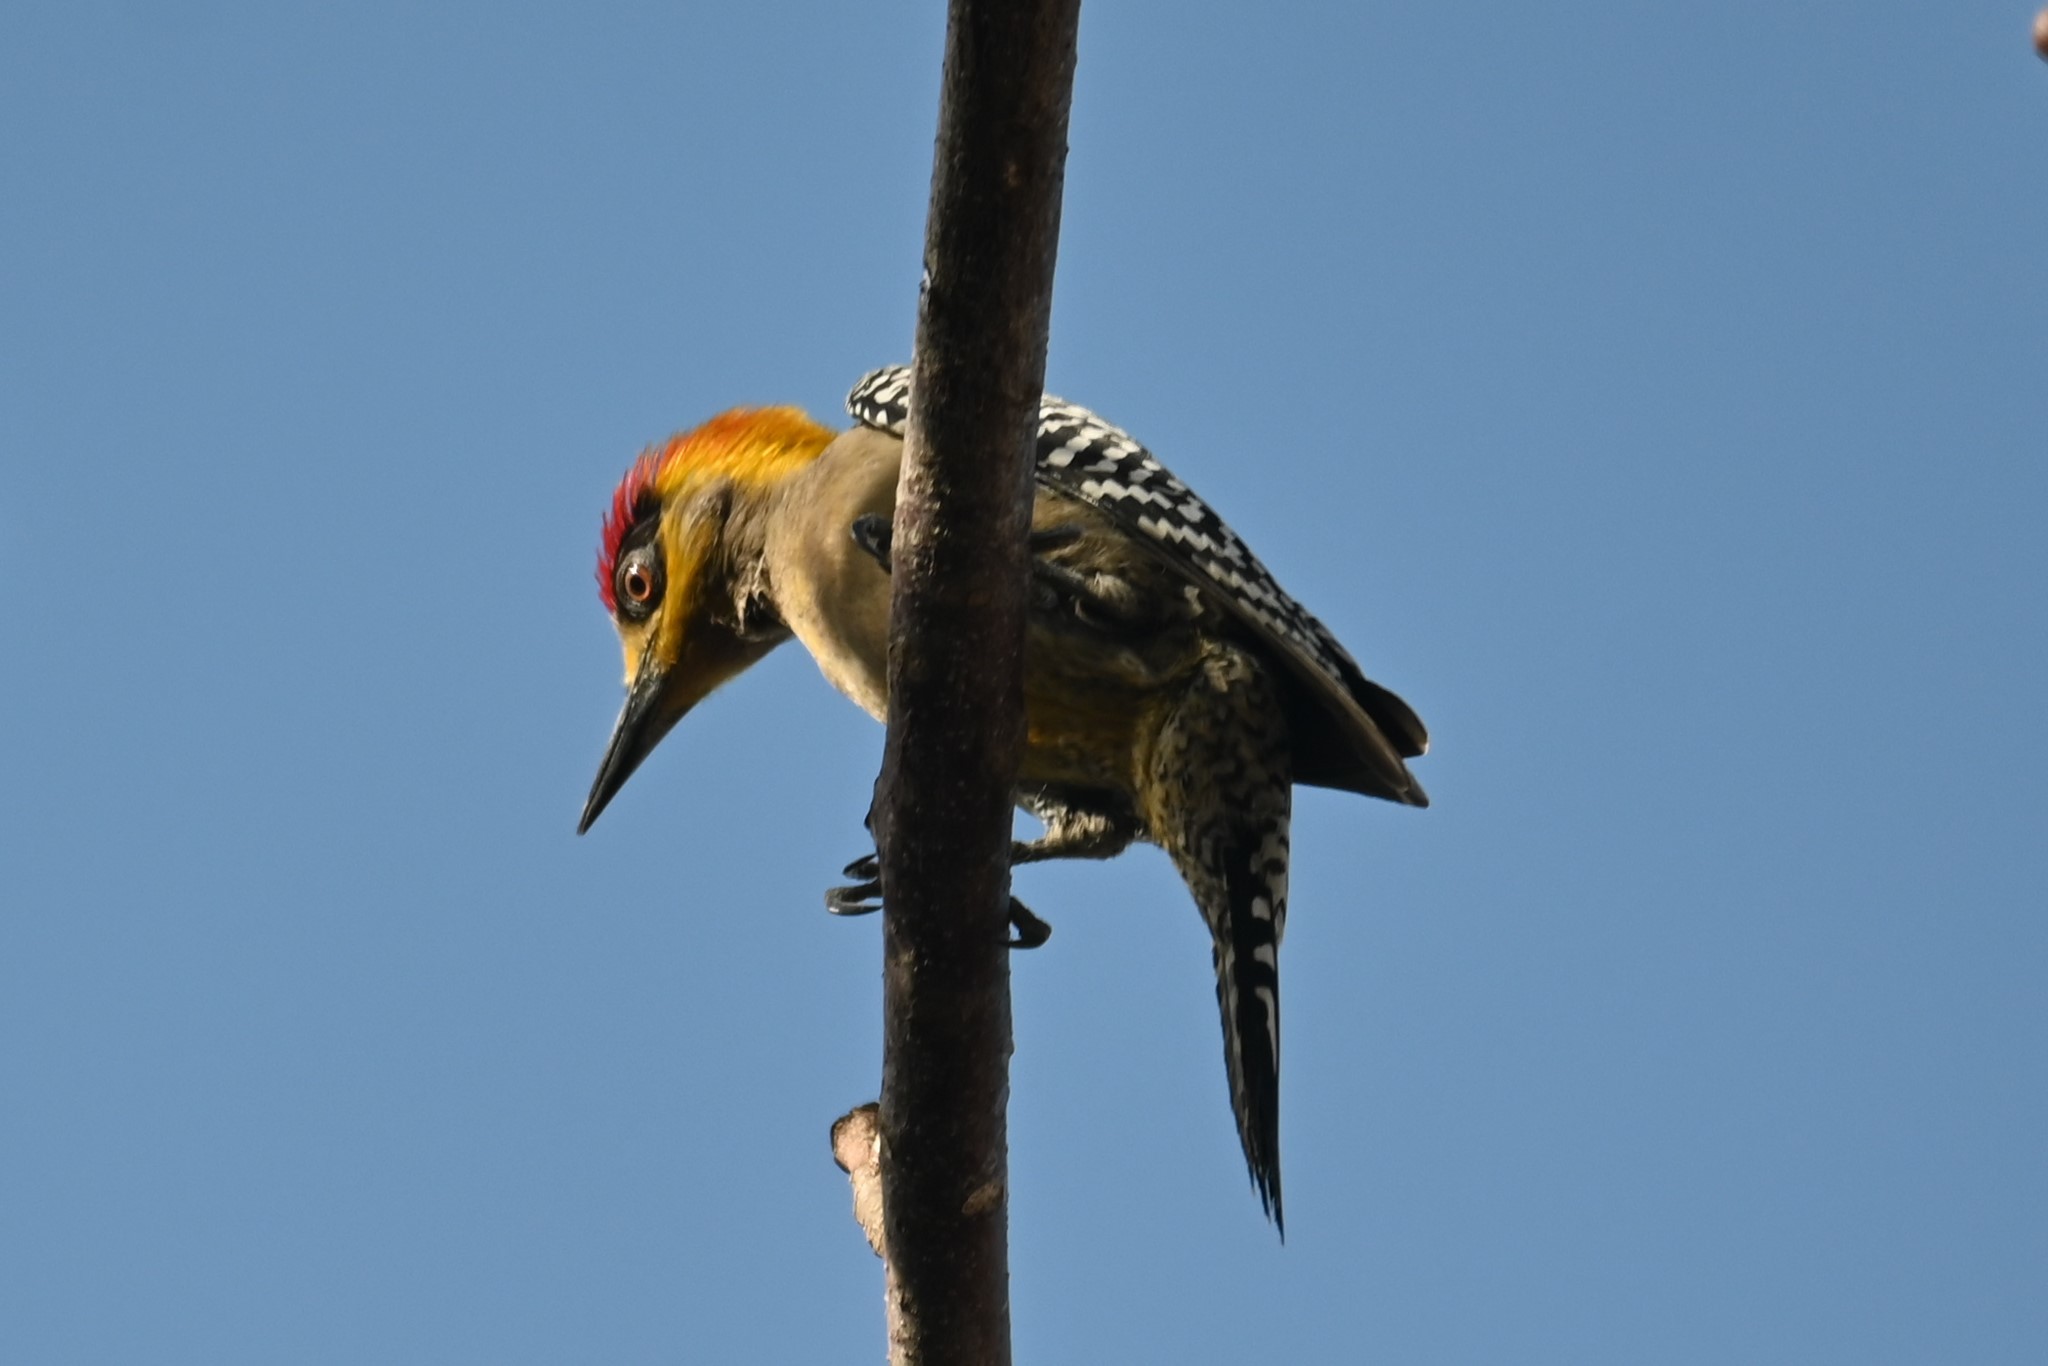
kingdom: Animalia
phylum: Chordata
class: Aves
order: Piciformes
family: Picidae
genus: Melanerpes
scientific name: Melanerpes chrysogenys
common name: Golden-cheeked woodpecker
